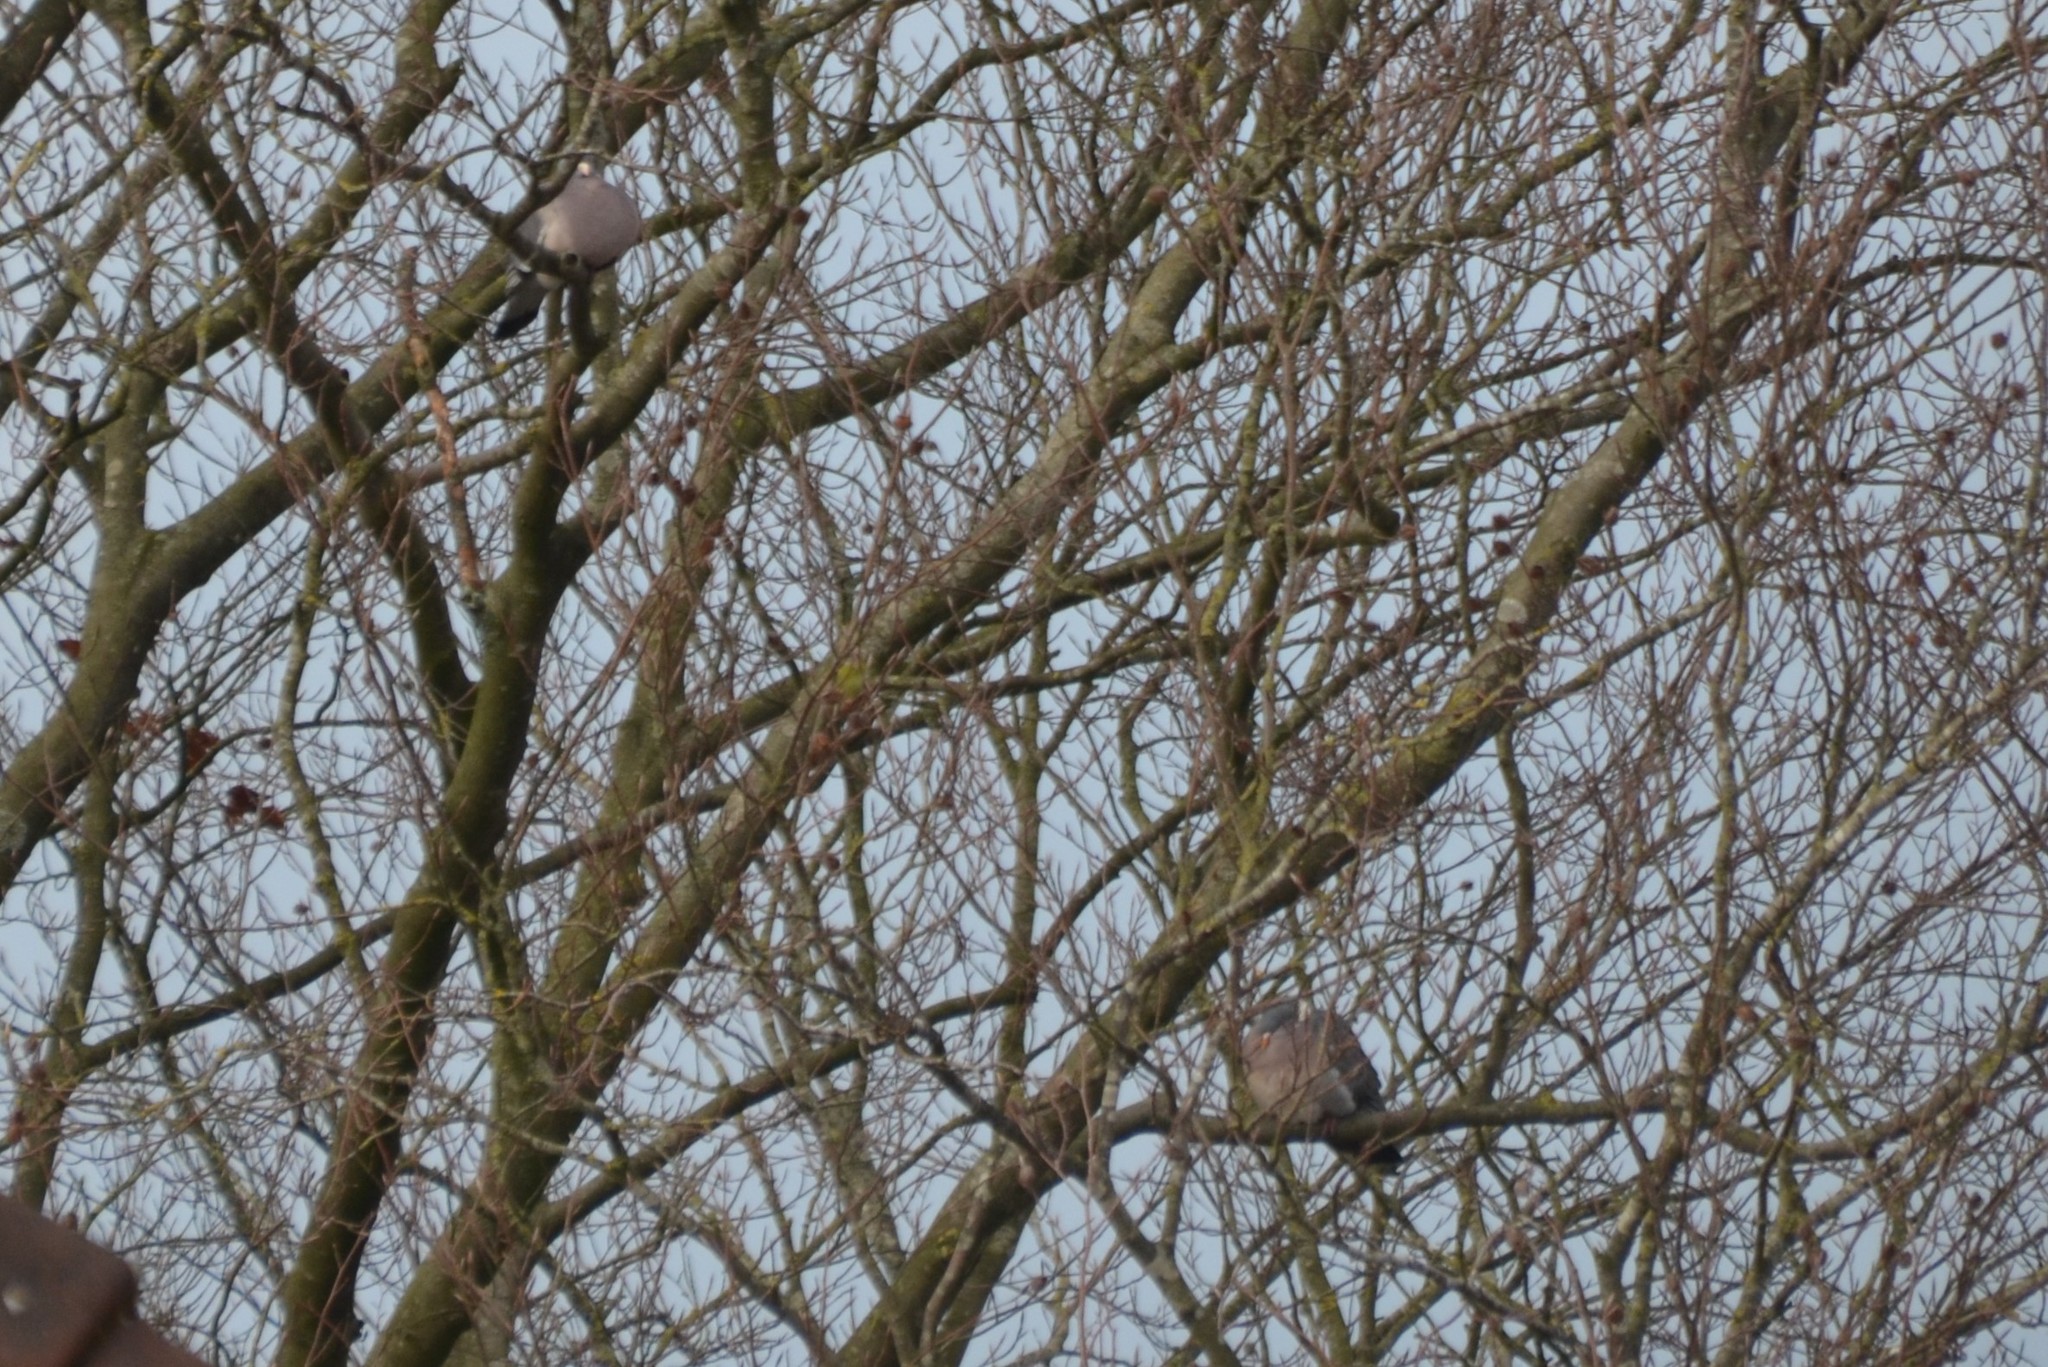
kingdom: Animalia
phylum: Chordata
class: Aves
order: Columbiformes
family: Columbidae
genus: Columba
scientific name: Columba palumbus
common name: Common wood pigeon
